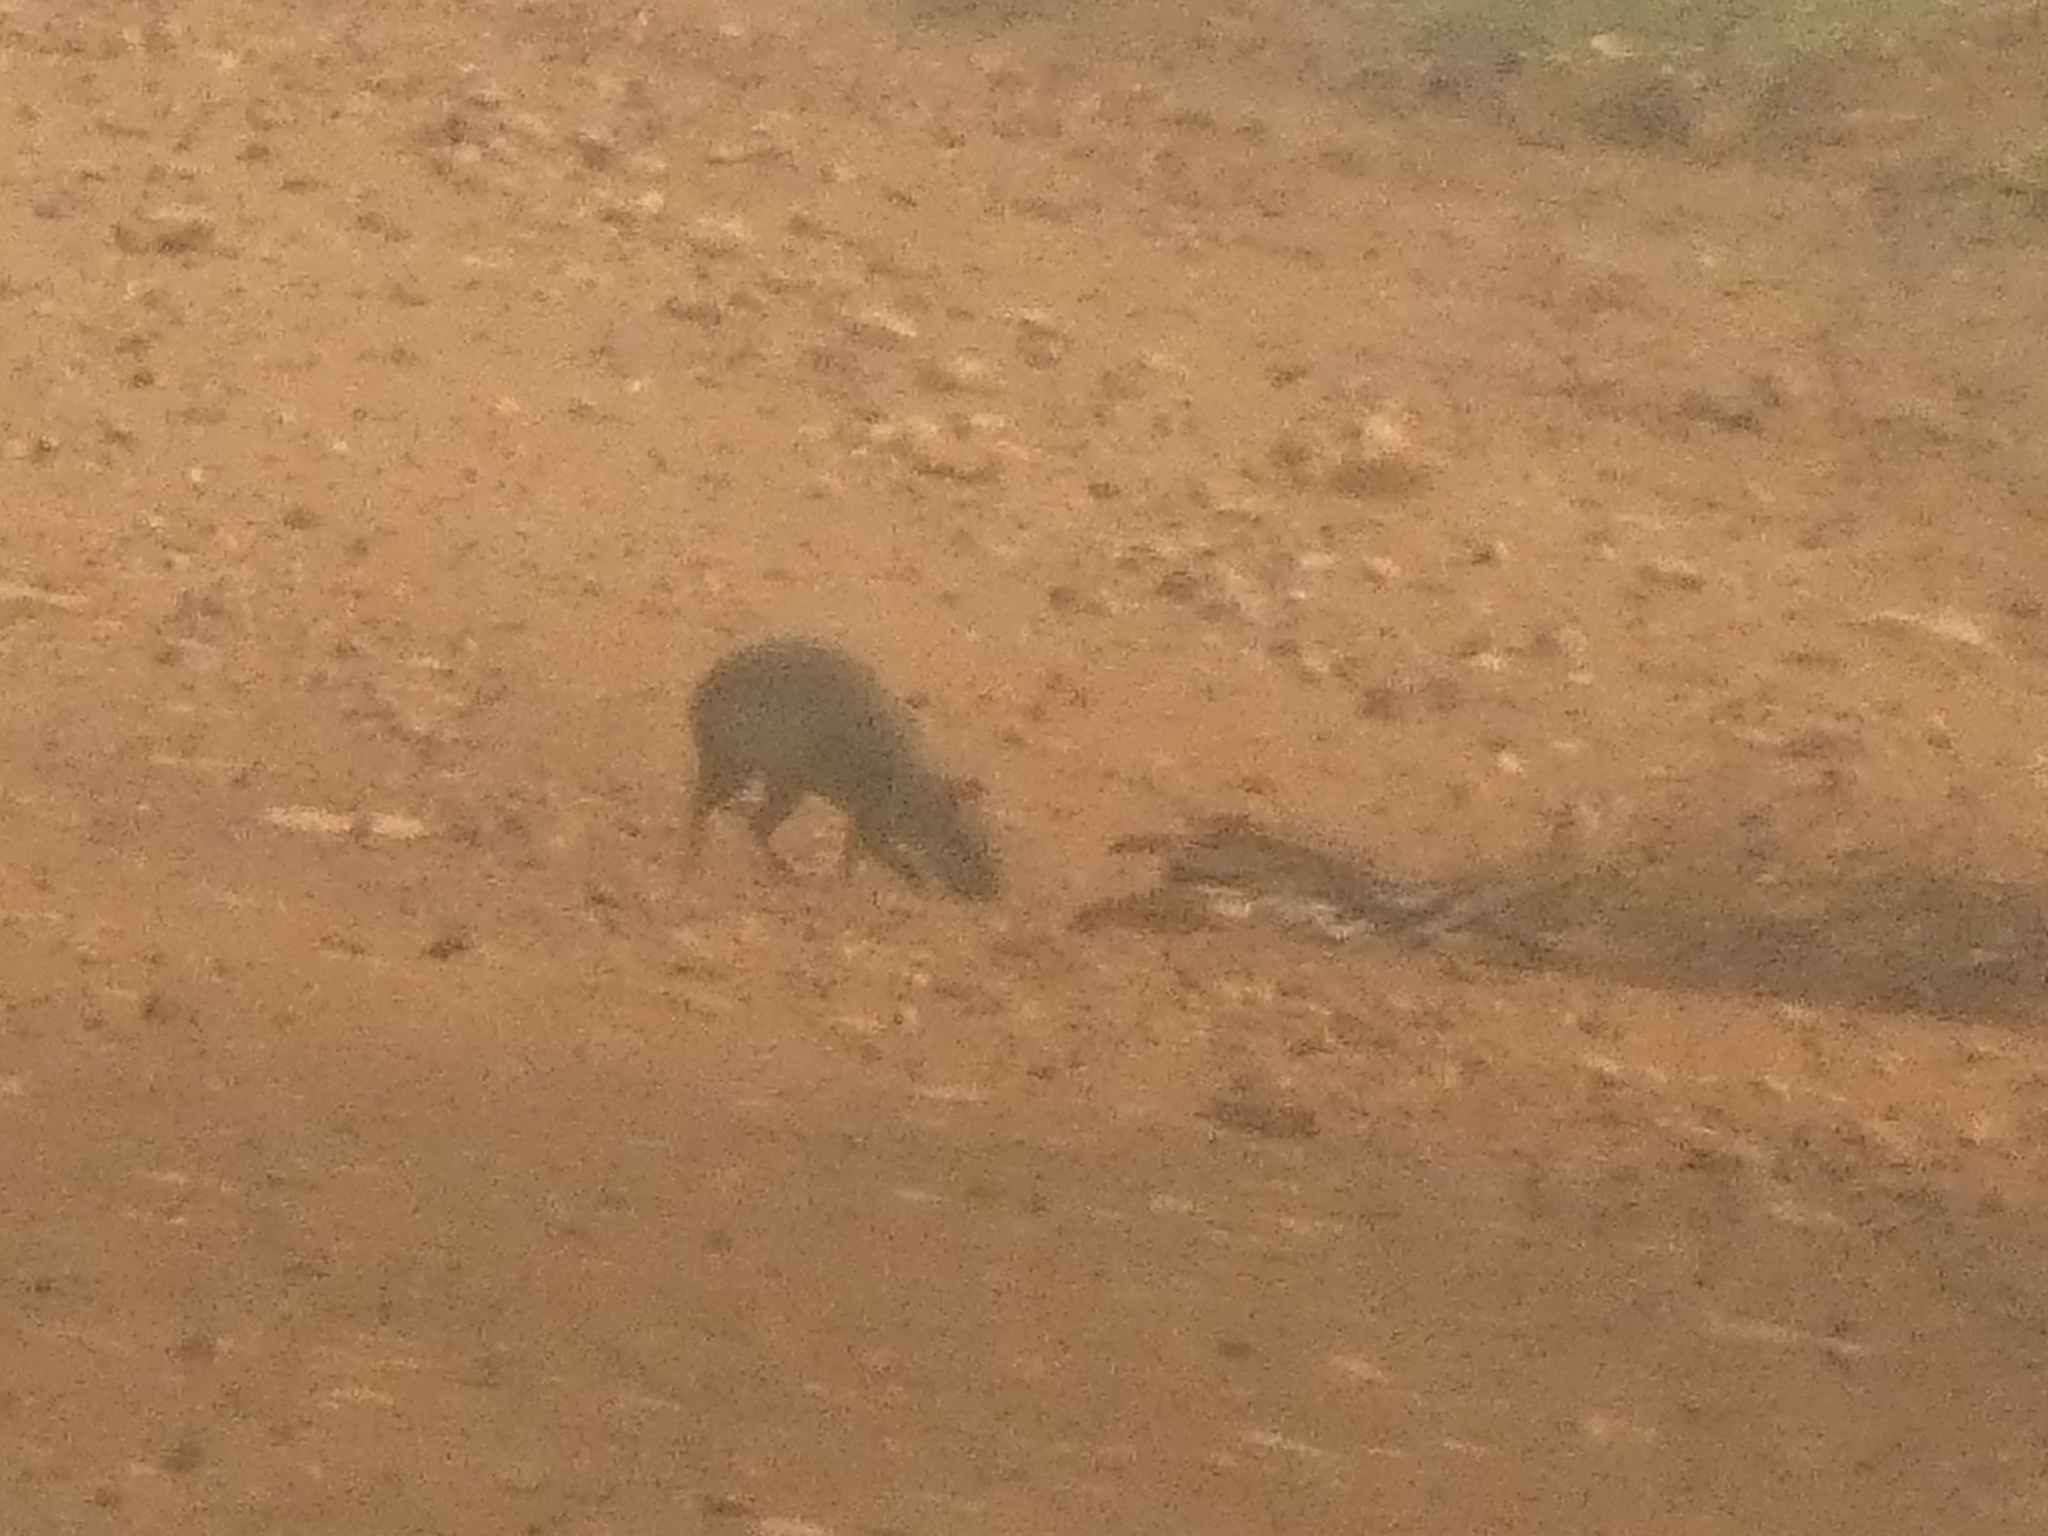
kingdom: Animalia
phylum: Chordata
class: Mammalia
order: Rodentia
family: Dasyproctidae
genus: Dasyprocta
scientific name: Dasyprocta azarae
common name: Azara's agouti
